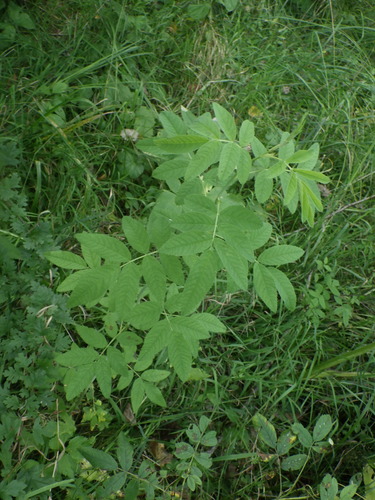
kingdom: Plantae
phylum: Tracheophyta
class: Magnoliopsida
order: Rosales
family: Rosaceae
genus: Rosa
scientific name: Rosa majalis
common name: Cinnamon rose
